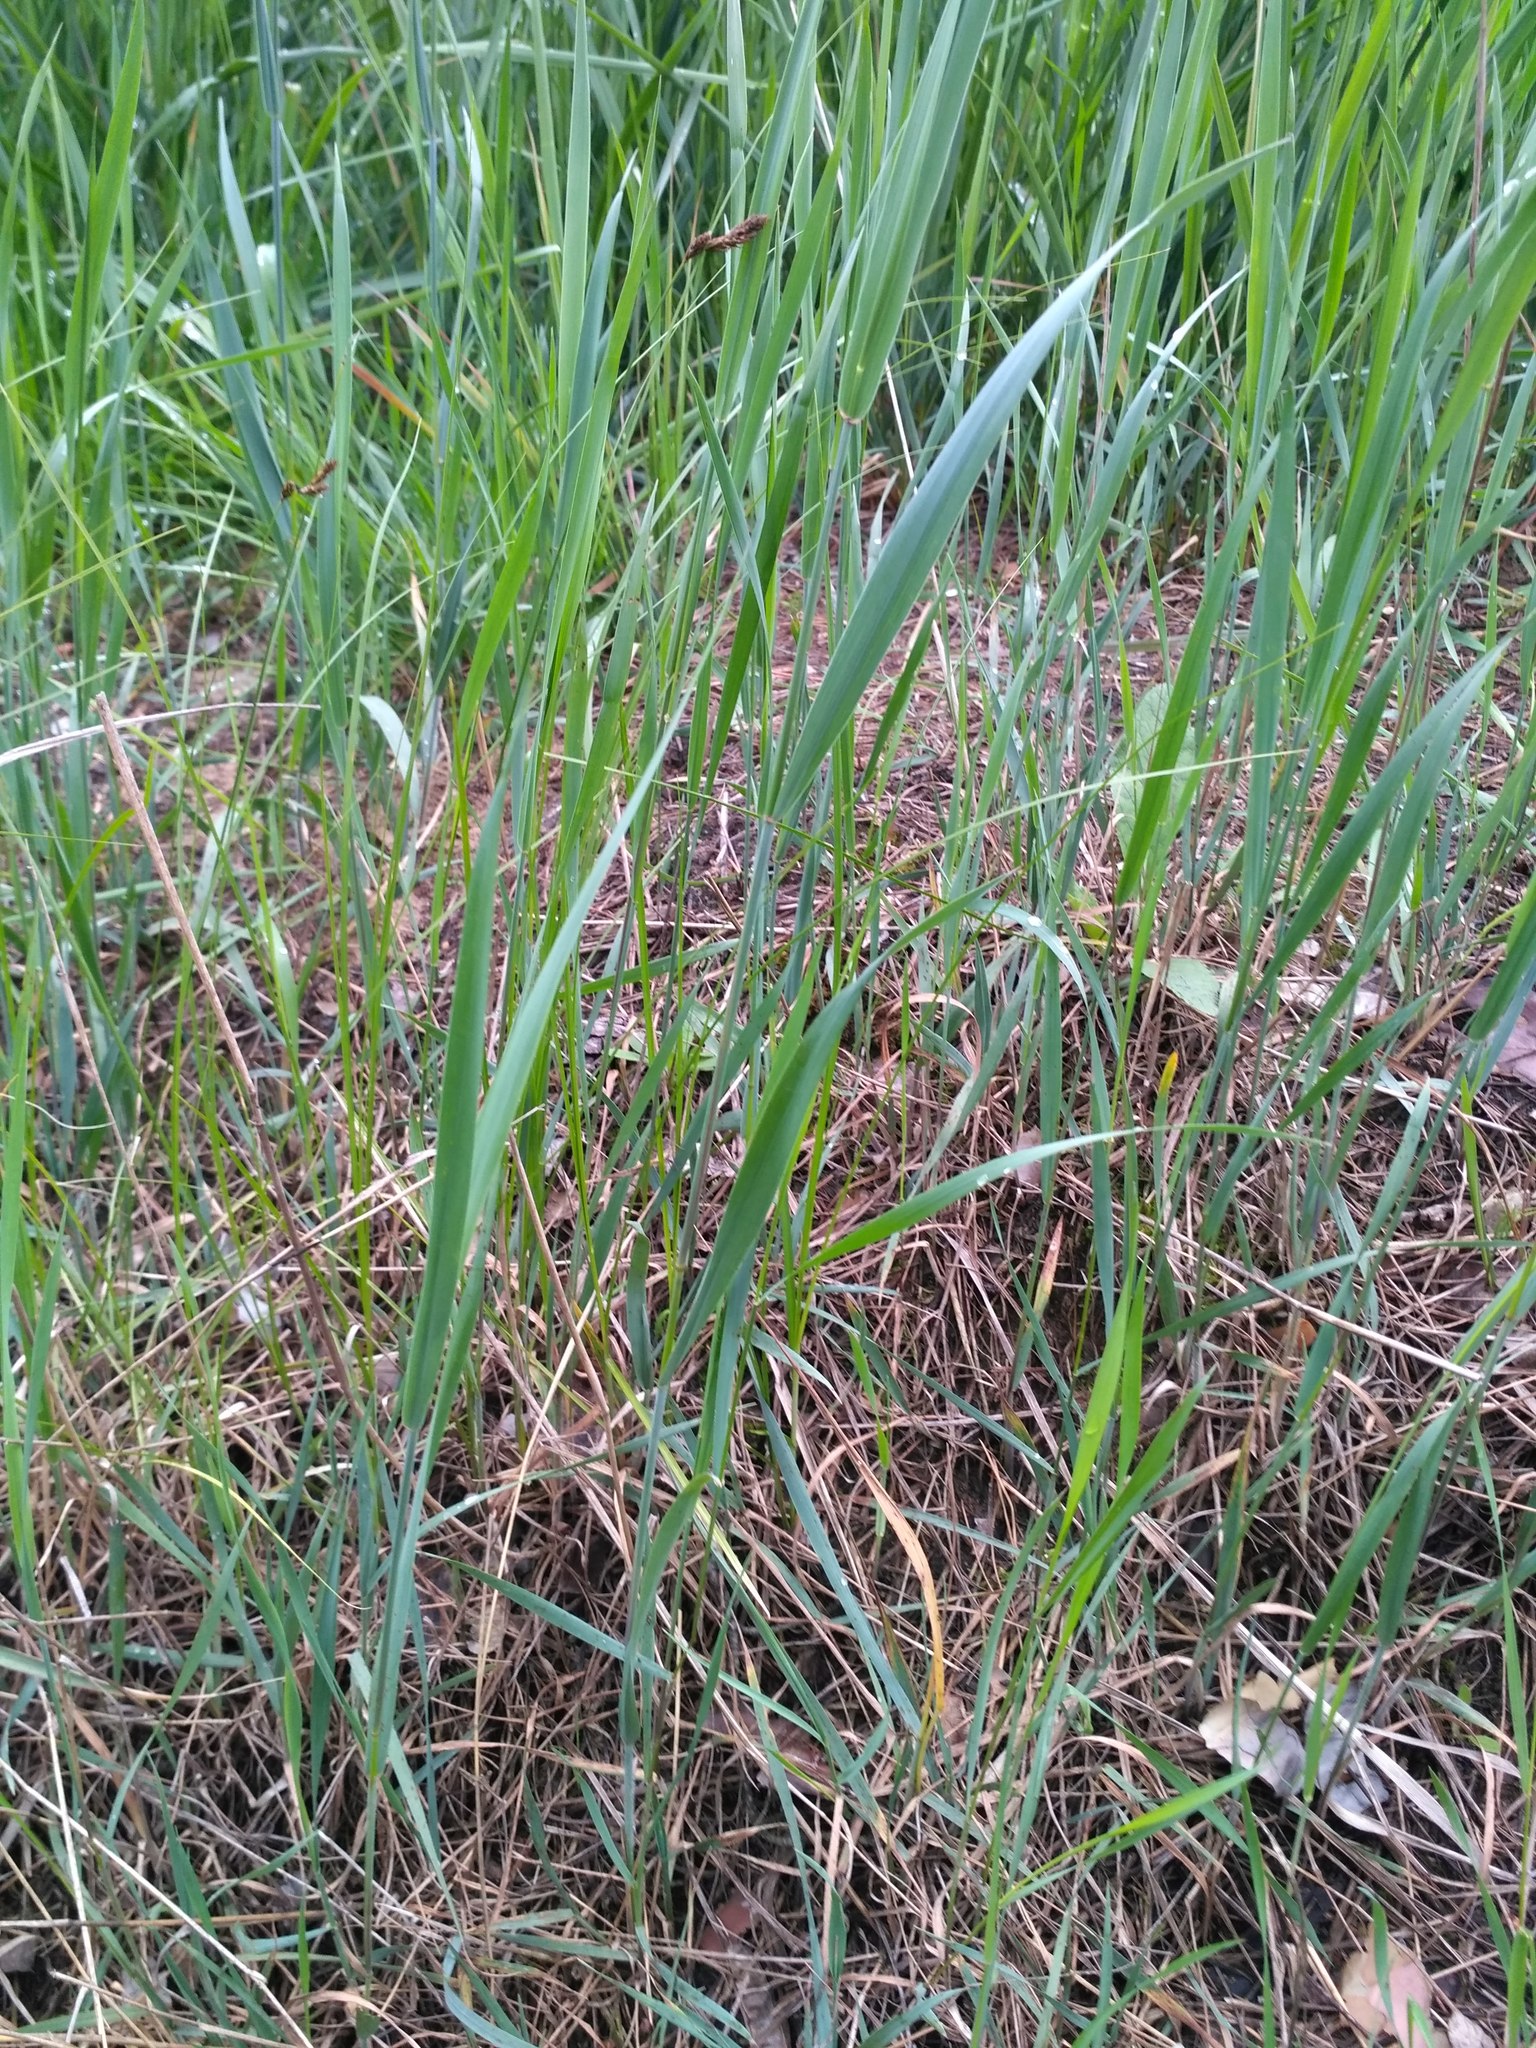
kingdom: Plantae
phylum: Tracheophyta
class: Liliopsida
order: Poales
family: Poaceae
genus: Elymus
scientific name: Elymus repens
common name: Quackgrass
